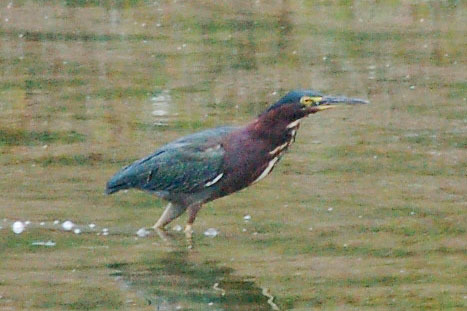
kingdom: Animalia
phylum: Chordata
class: Aves
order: Pelecaniformes
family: Ardeidae
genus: Butorides
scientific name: Butorides virescens
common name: Green heron
